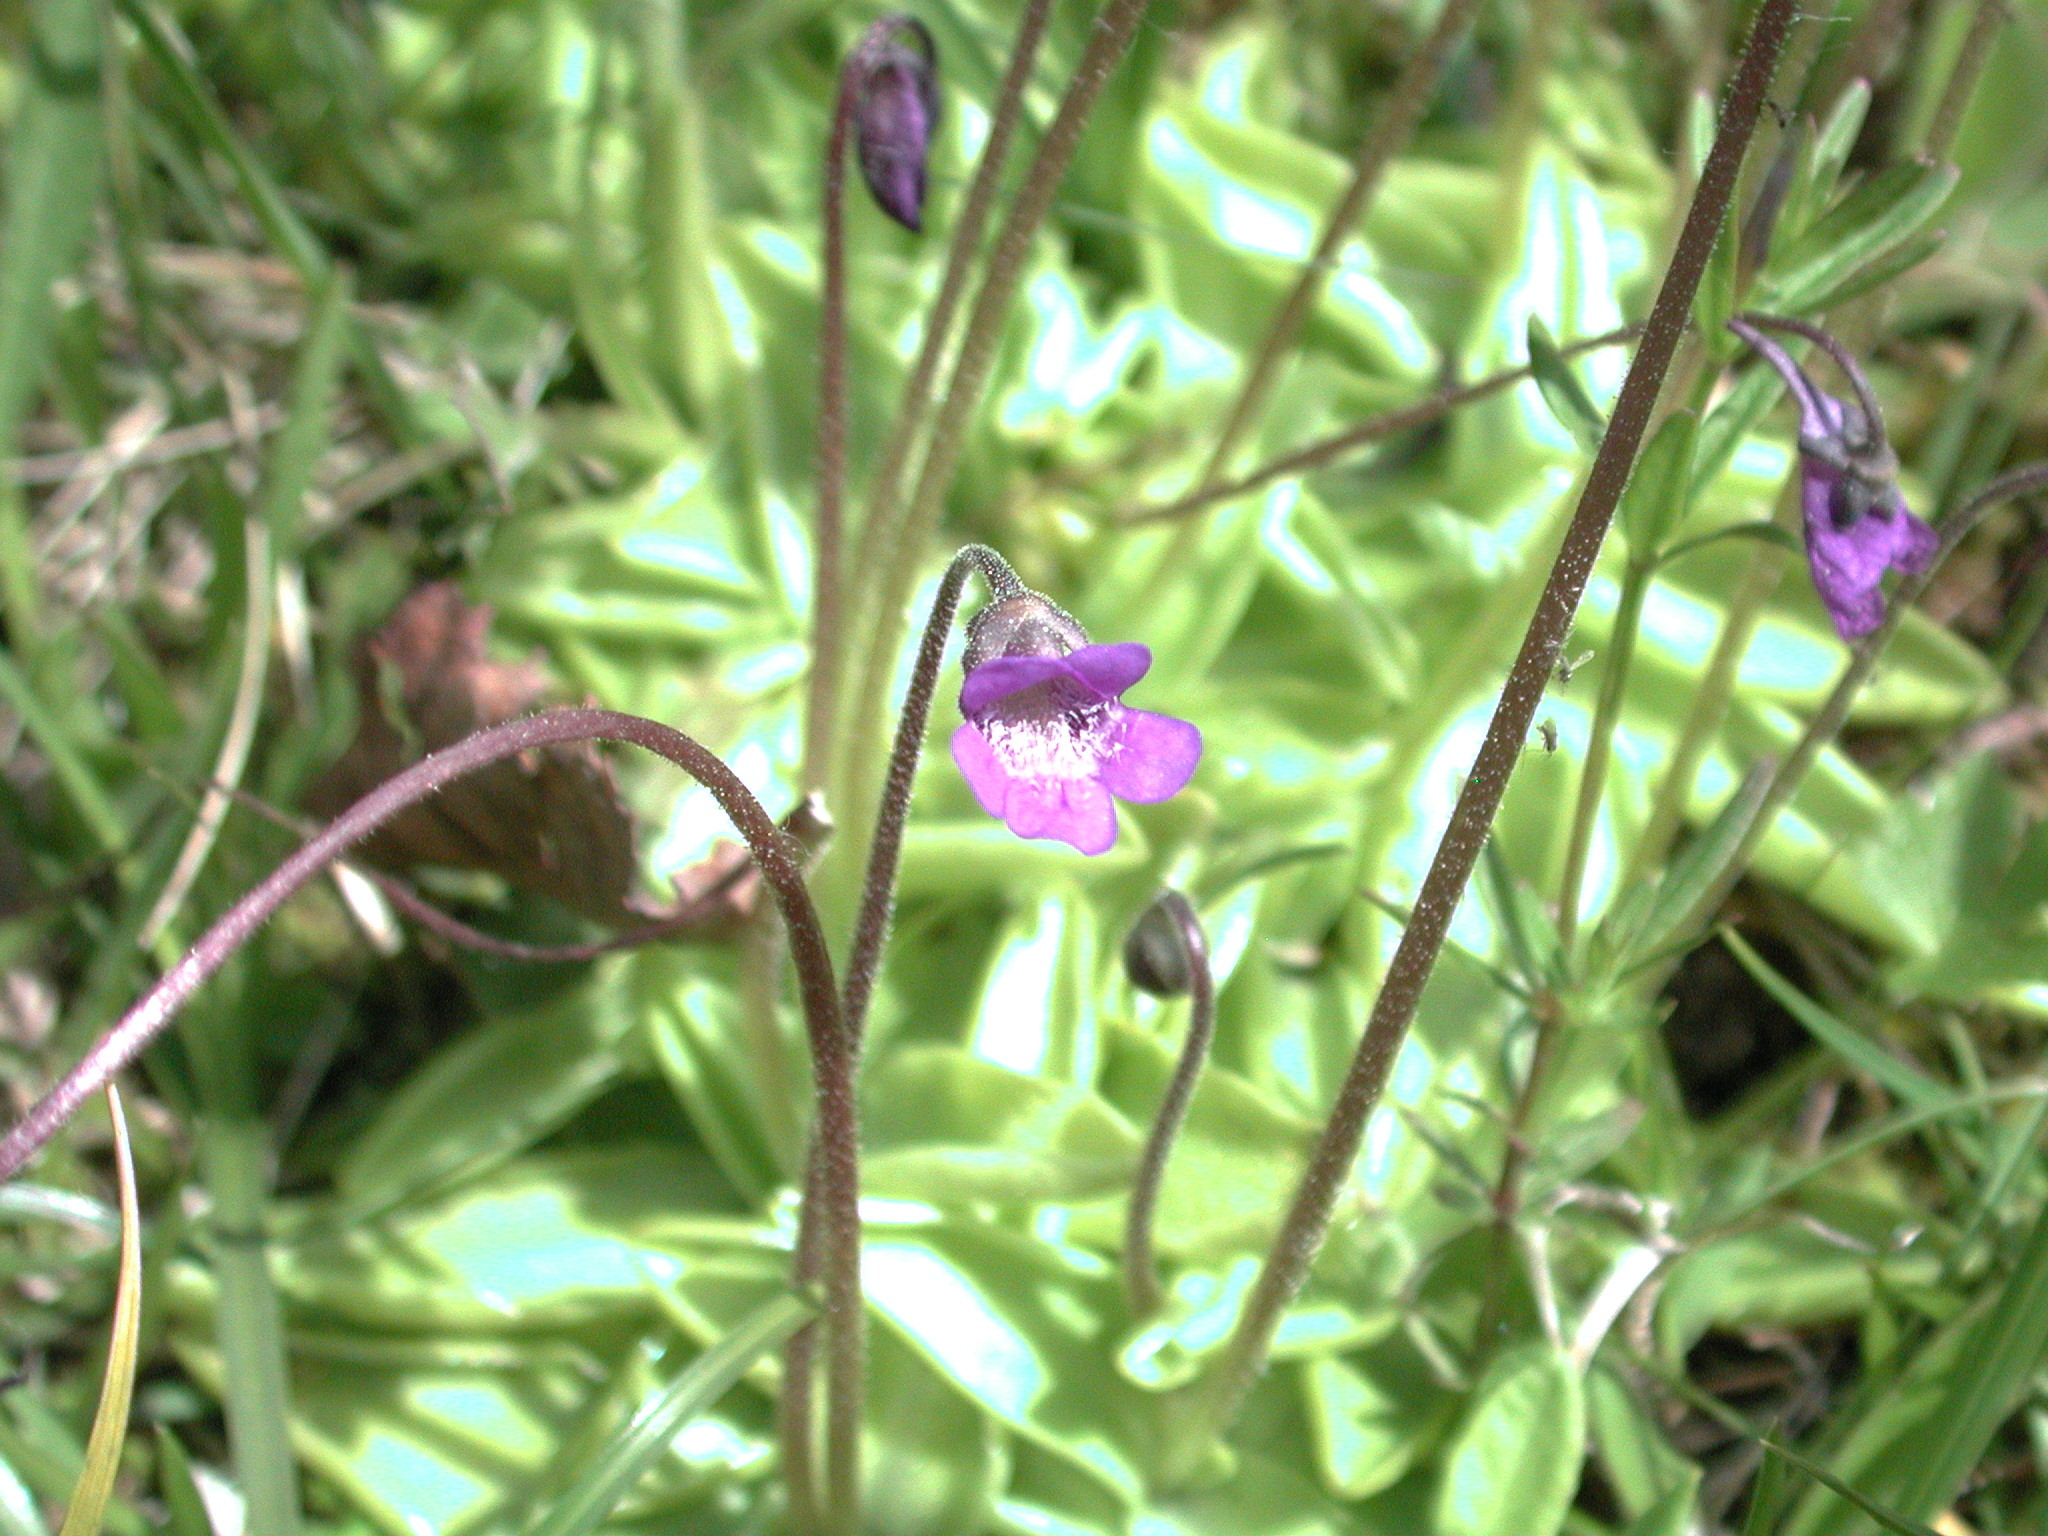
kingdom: Plantae
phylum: Tracheophyta
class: Magnoliopsida
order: Lamiales
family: Lentibulariaceae
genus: Pinguicula
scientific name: Pinguicula vulgaris
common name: Common butterwort
